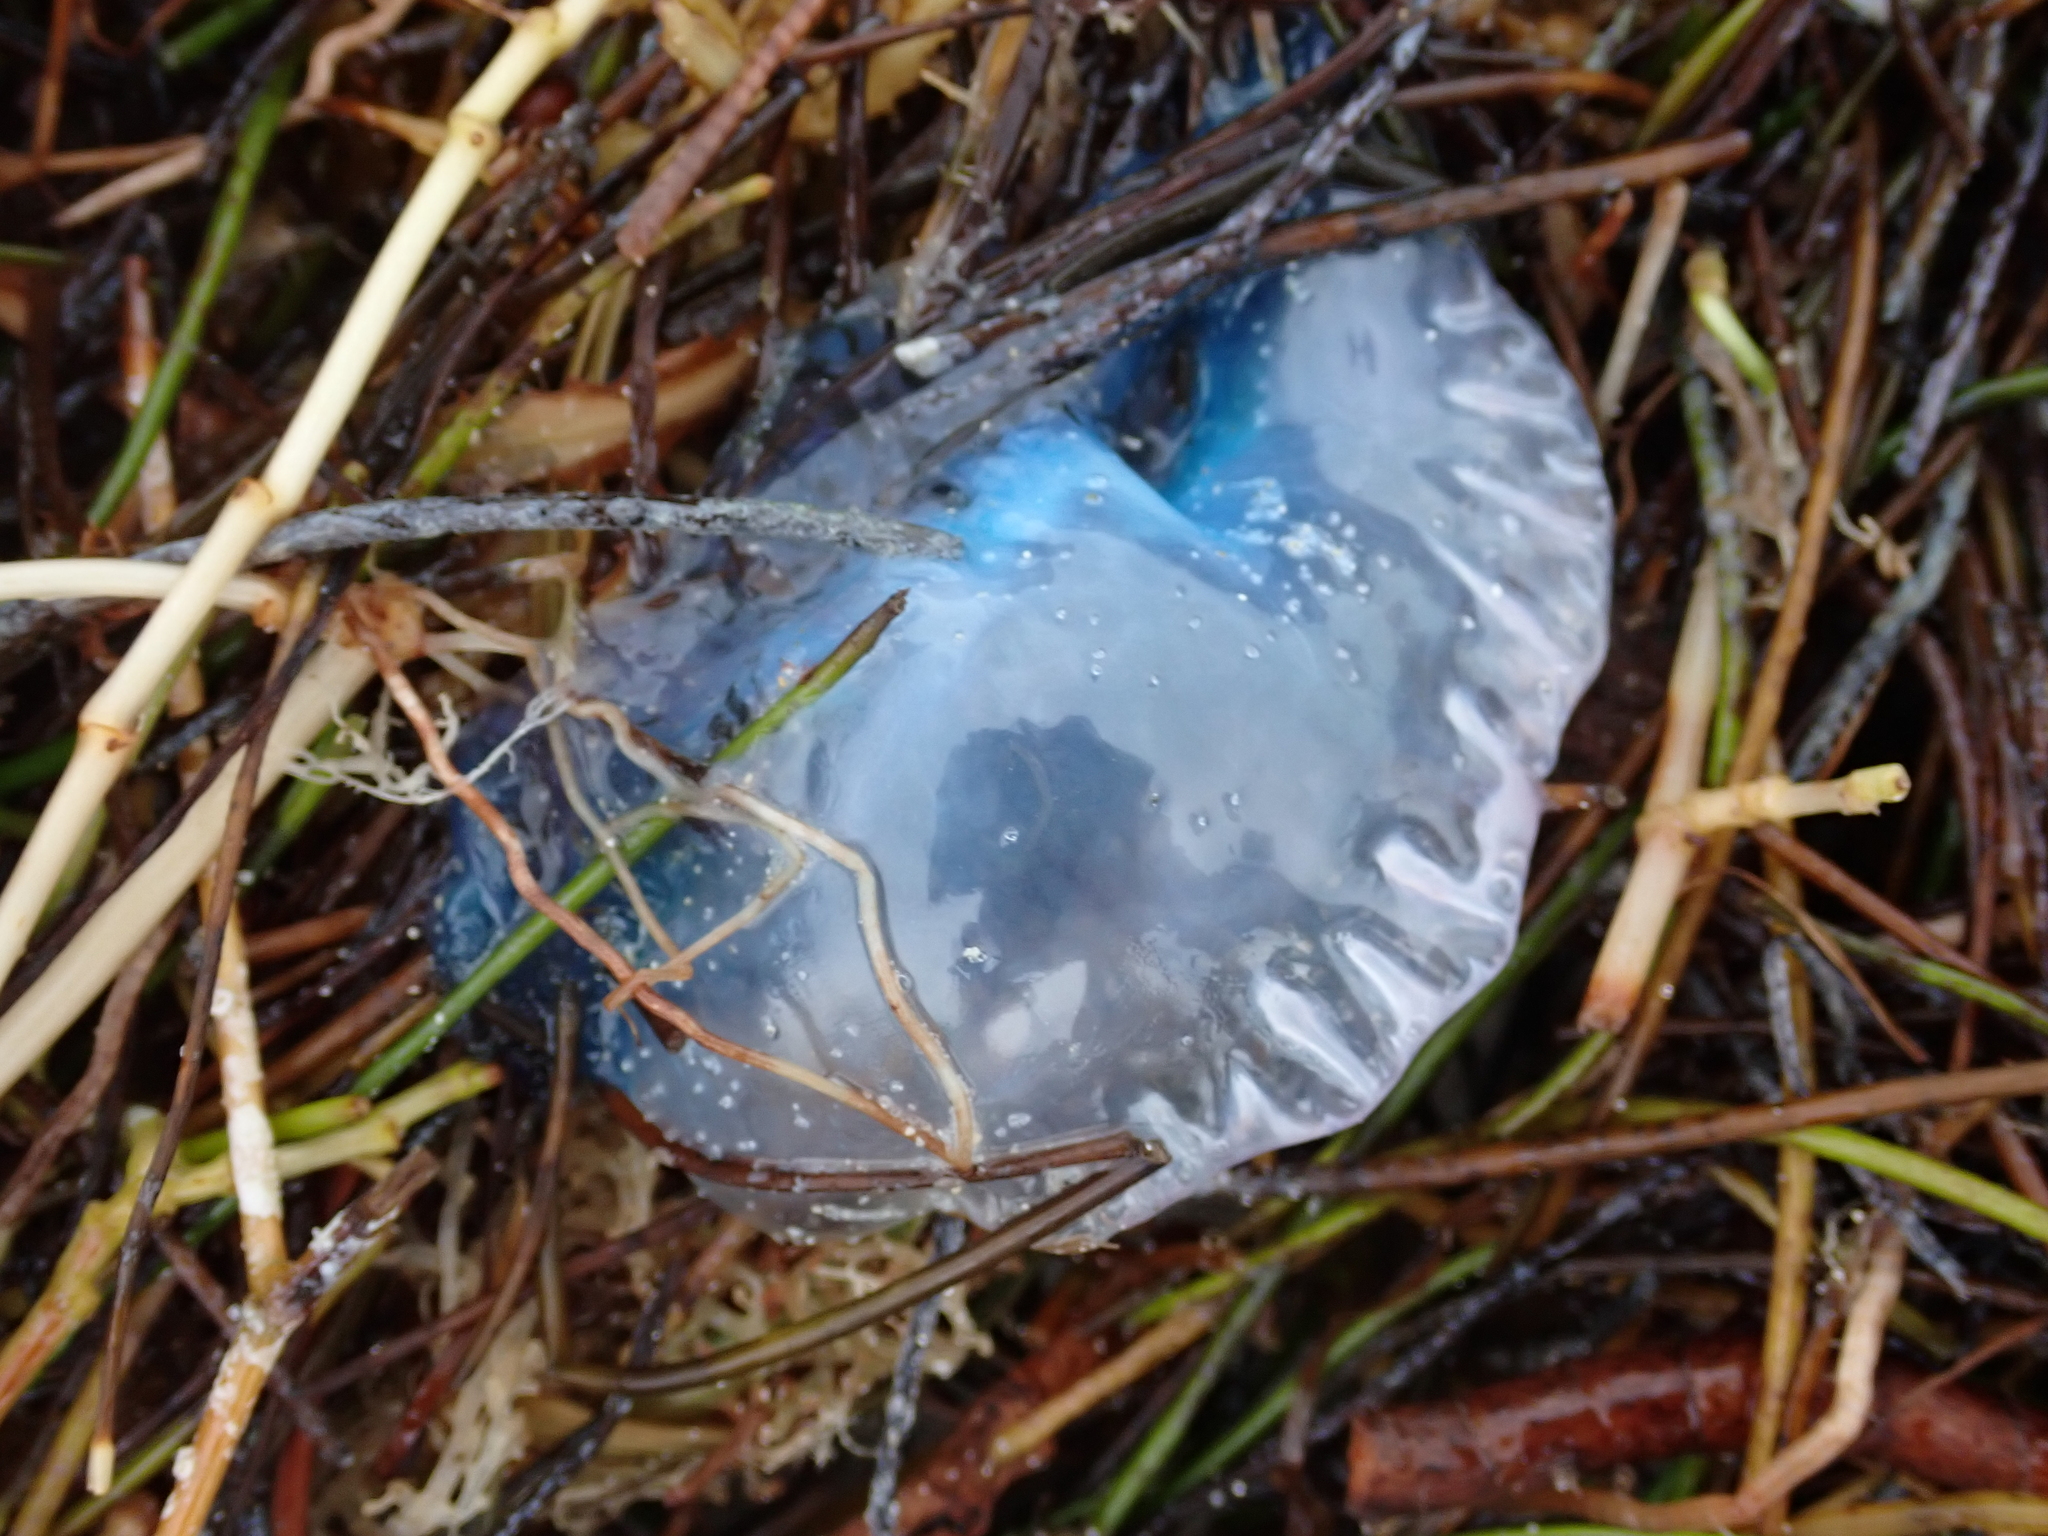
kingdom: Animalia
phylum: Cnidaria
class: Hydrozoa
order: Siphonophorae
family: Physaliidae
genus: Physalia
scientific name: Physalia physalis
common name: Portuguese man-of-war
